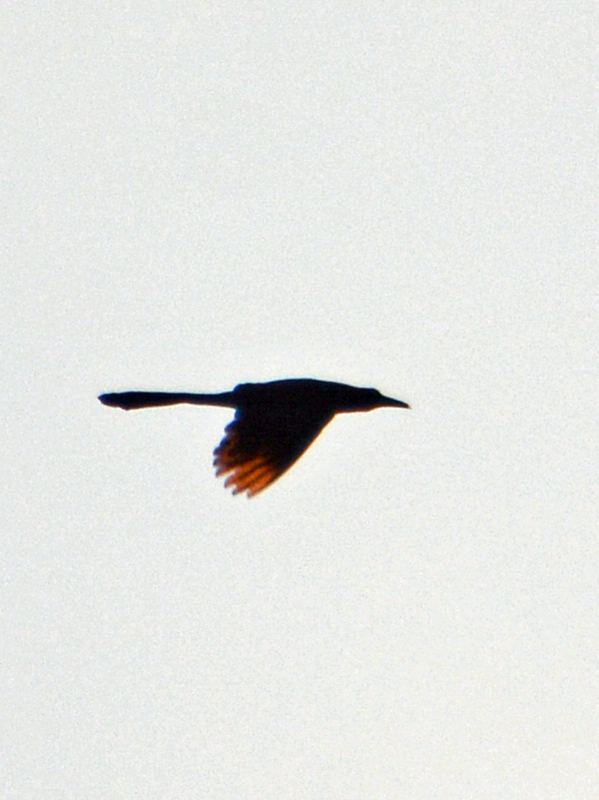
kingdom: Animalia
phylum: Chordata
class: Aves
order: Passeriformes
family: Icteridae
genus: Quiscalus
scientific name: Quiscalus mexicanus
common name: Great-tailed grackle
